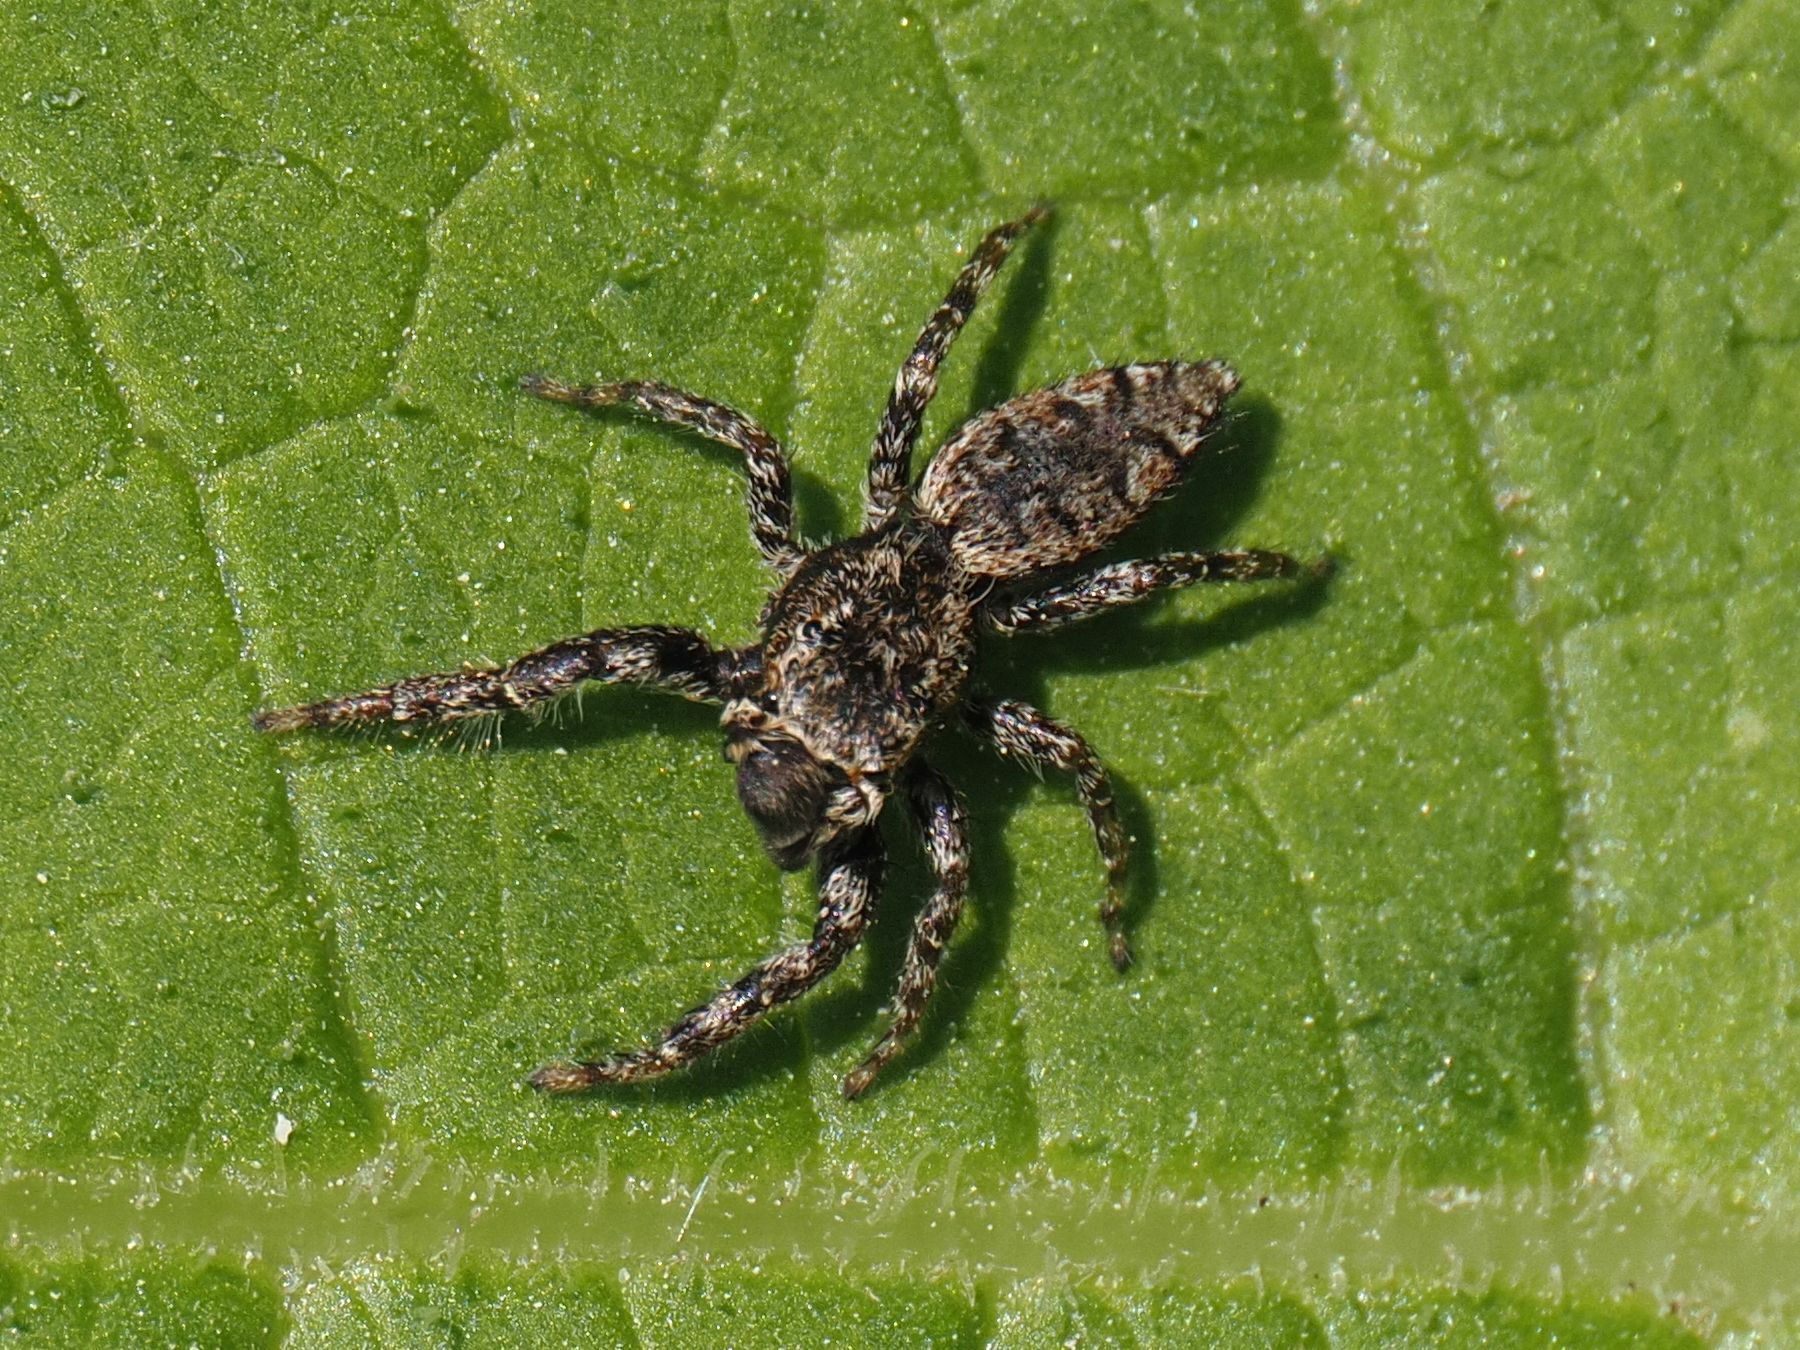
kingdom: Animalia
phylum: Arthropoda
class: Arachnida
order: Araneae
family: Salticidae
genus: Marpissa
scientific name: Marpissa muscosa
